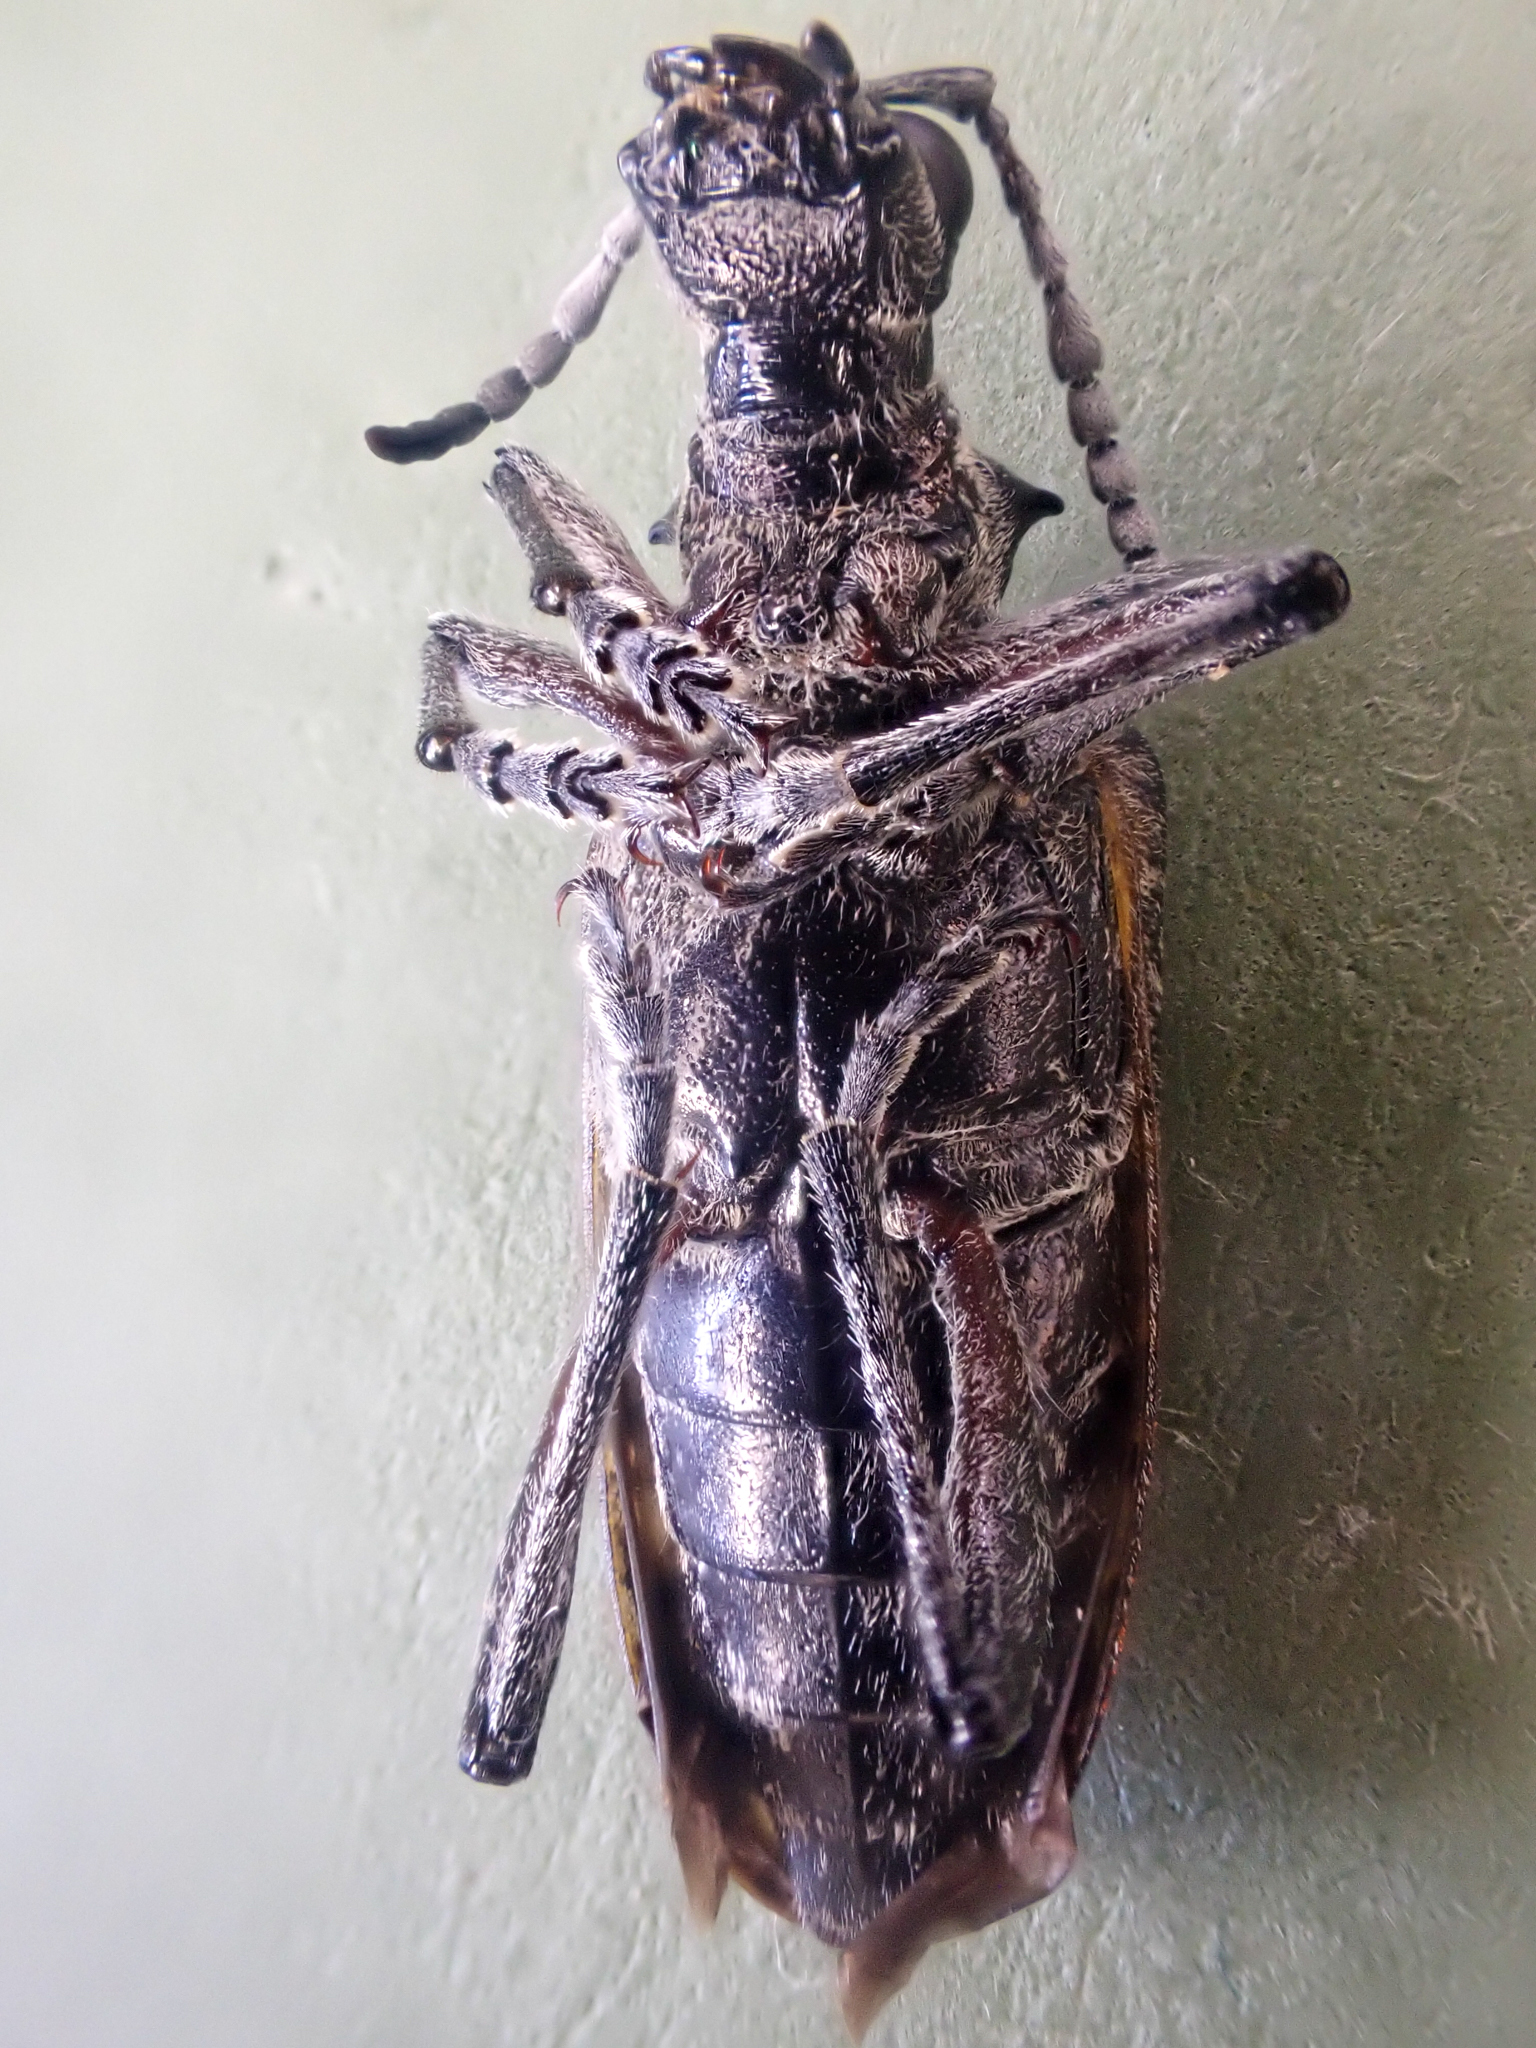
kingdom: Animalia
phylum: Arthropoda
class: Insecta
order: Coleoptera
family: Cerambycidae
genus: Rhagium
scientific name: Rhagium inquisitor
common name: Ribbed pine borer
